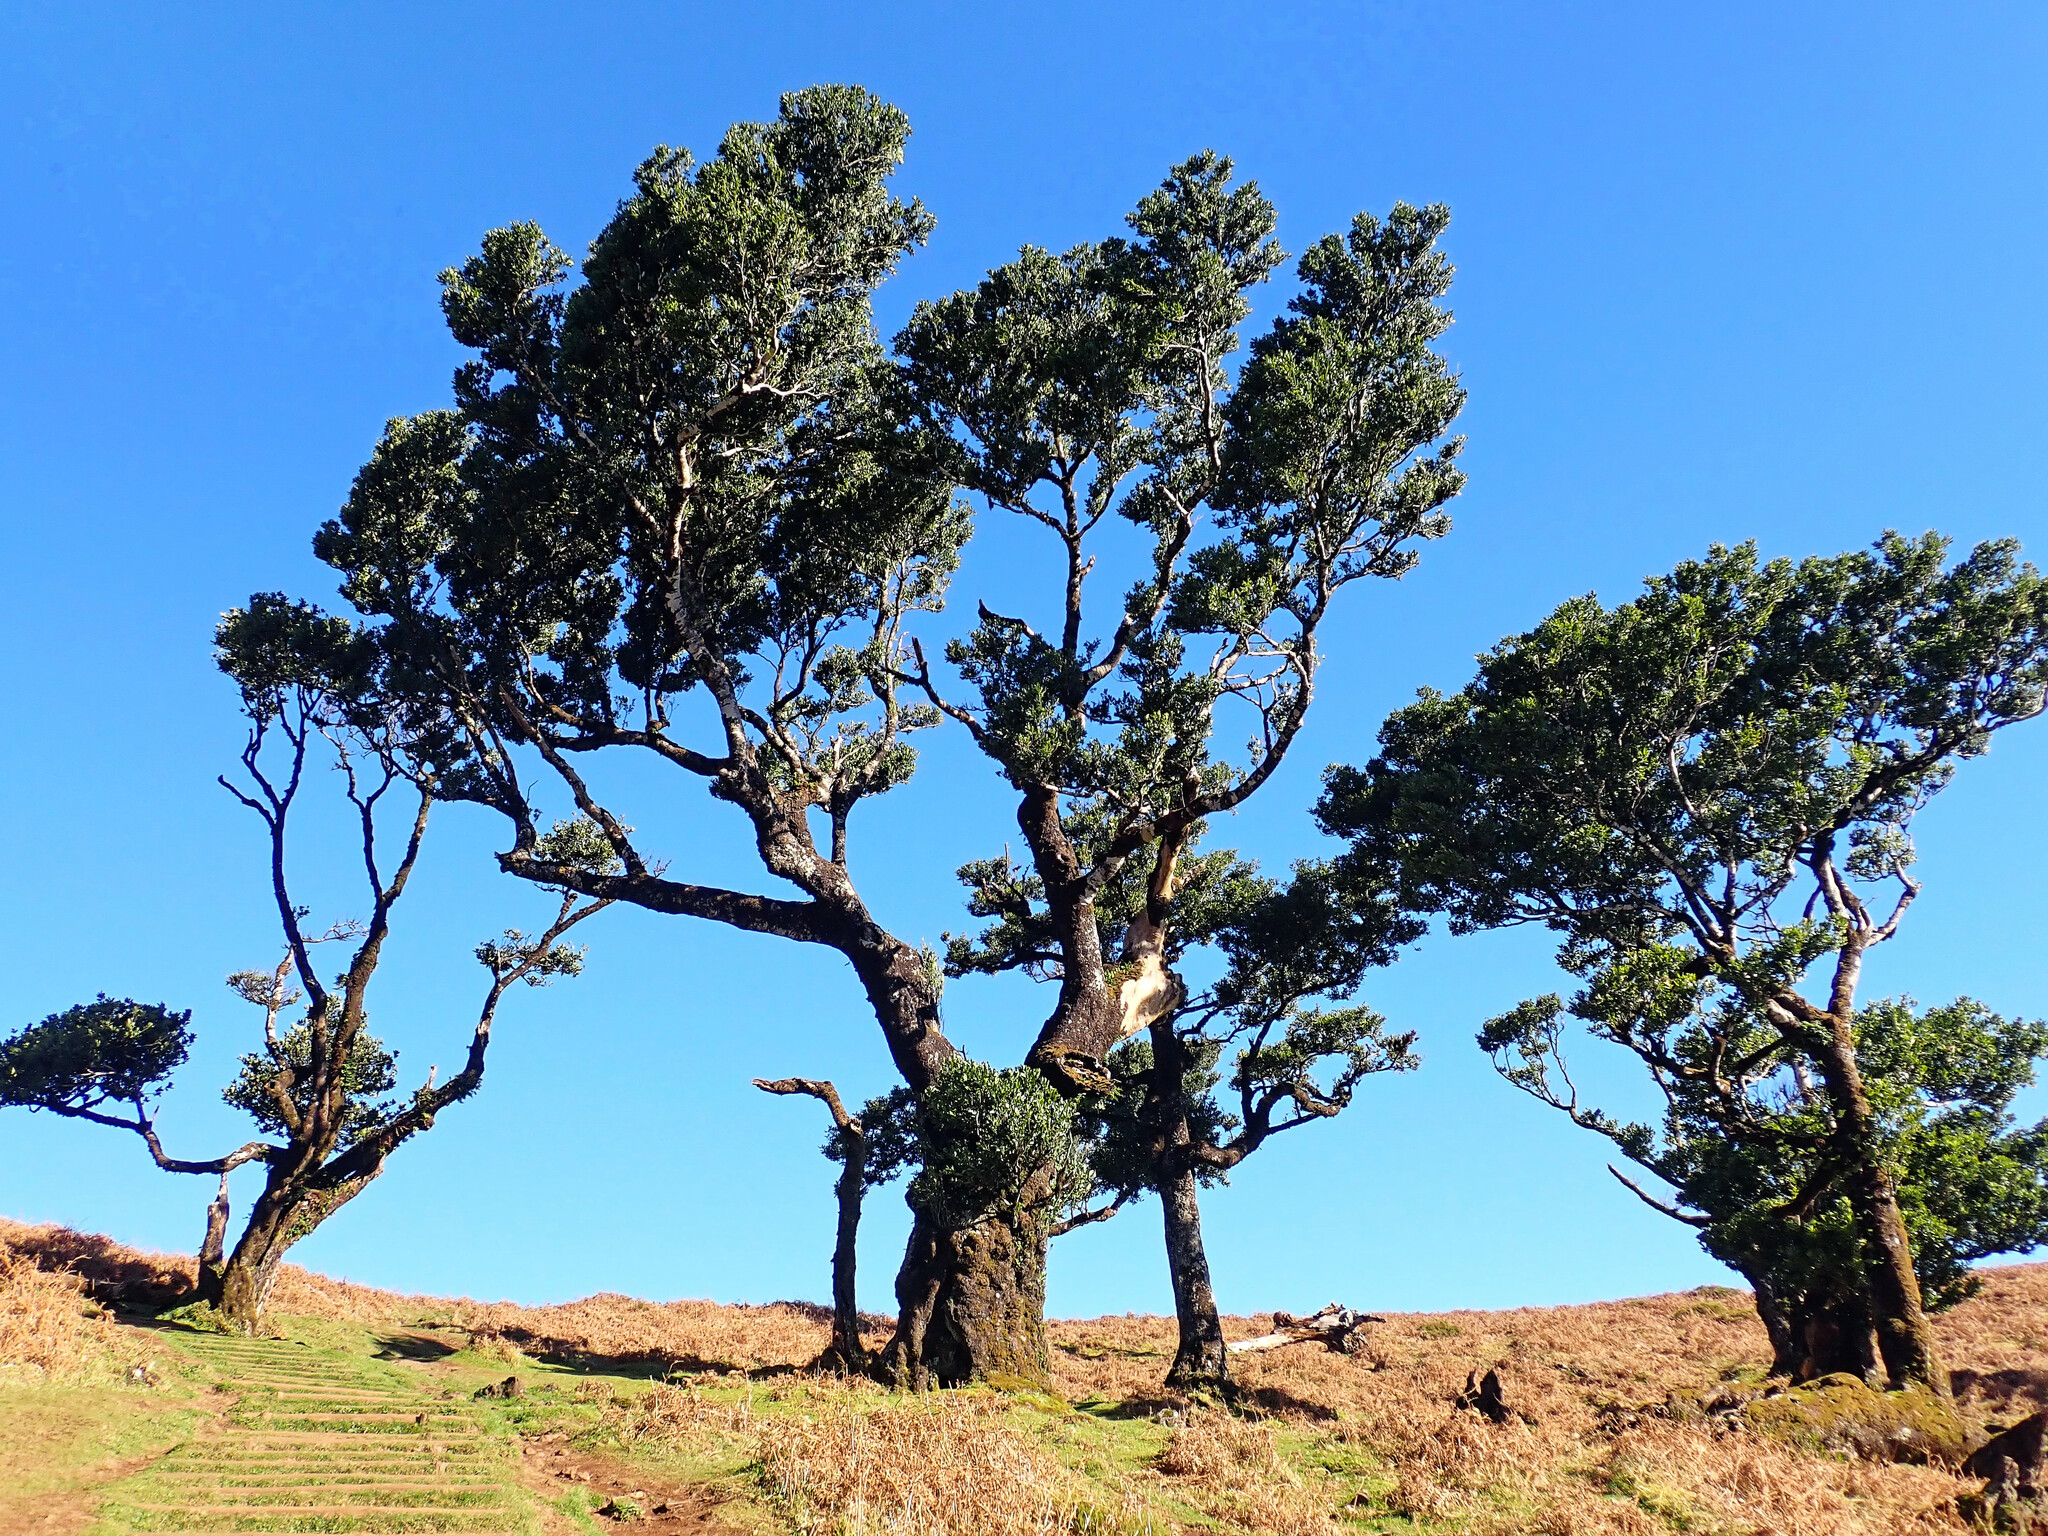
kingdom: Plantae
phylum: Tracheophyta
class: Magnoliopsida
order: Laurales
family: Lauraceae
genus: Mespilodaphne
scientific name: Mespilodaphne foetens
